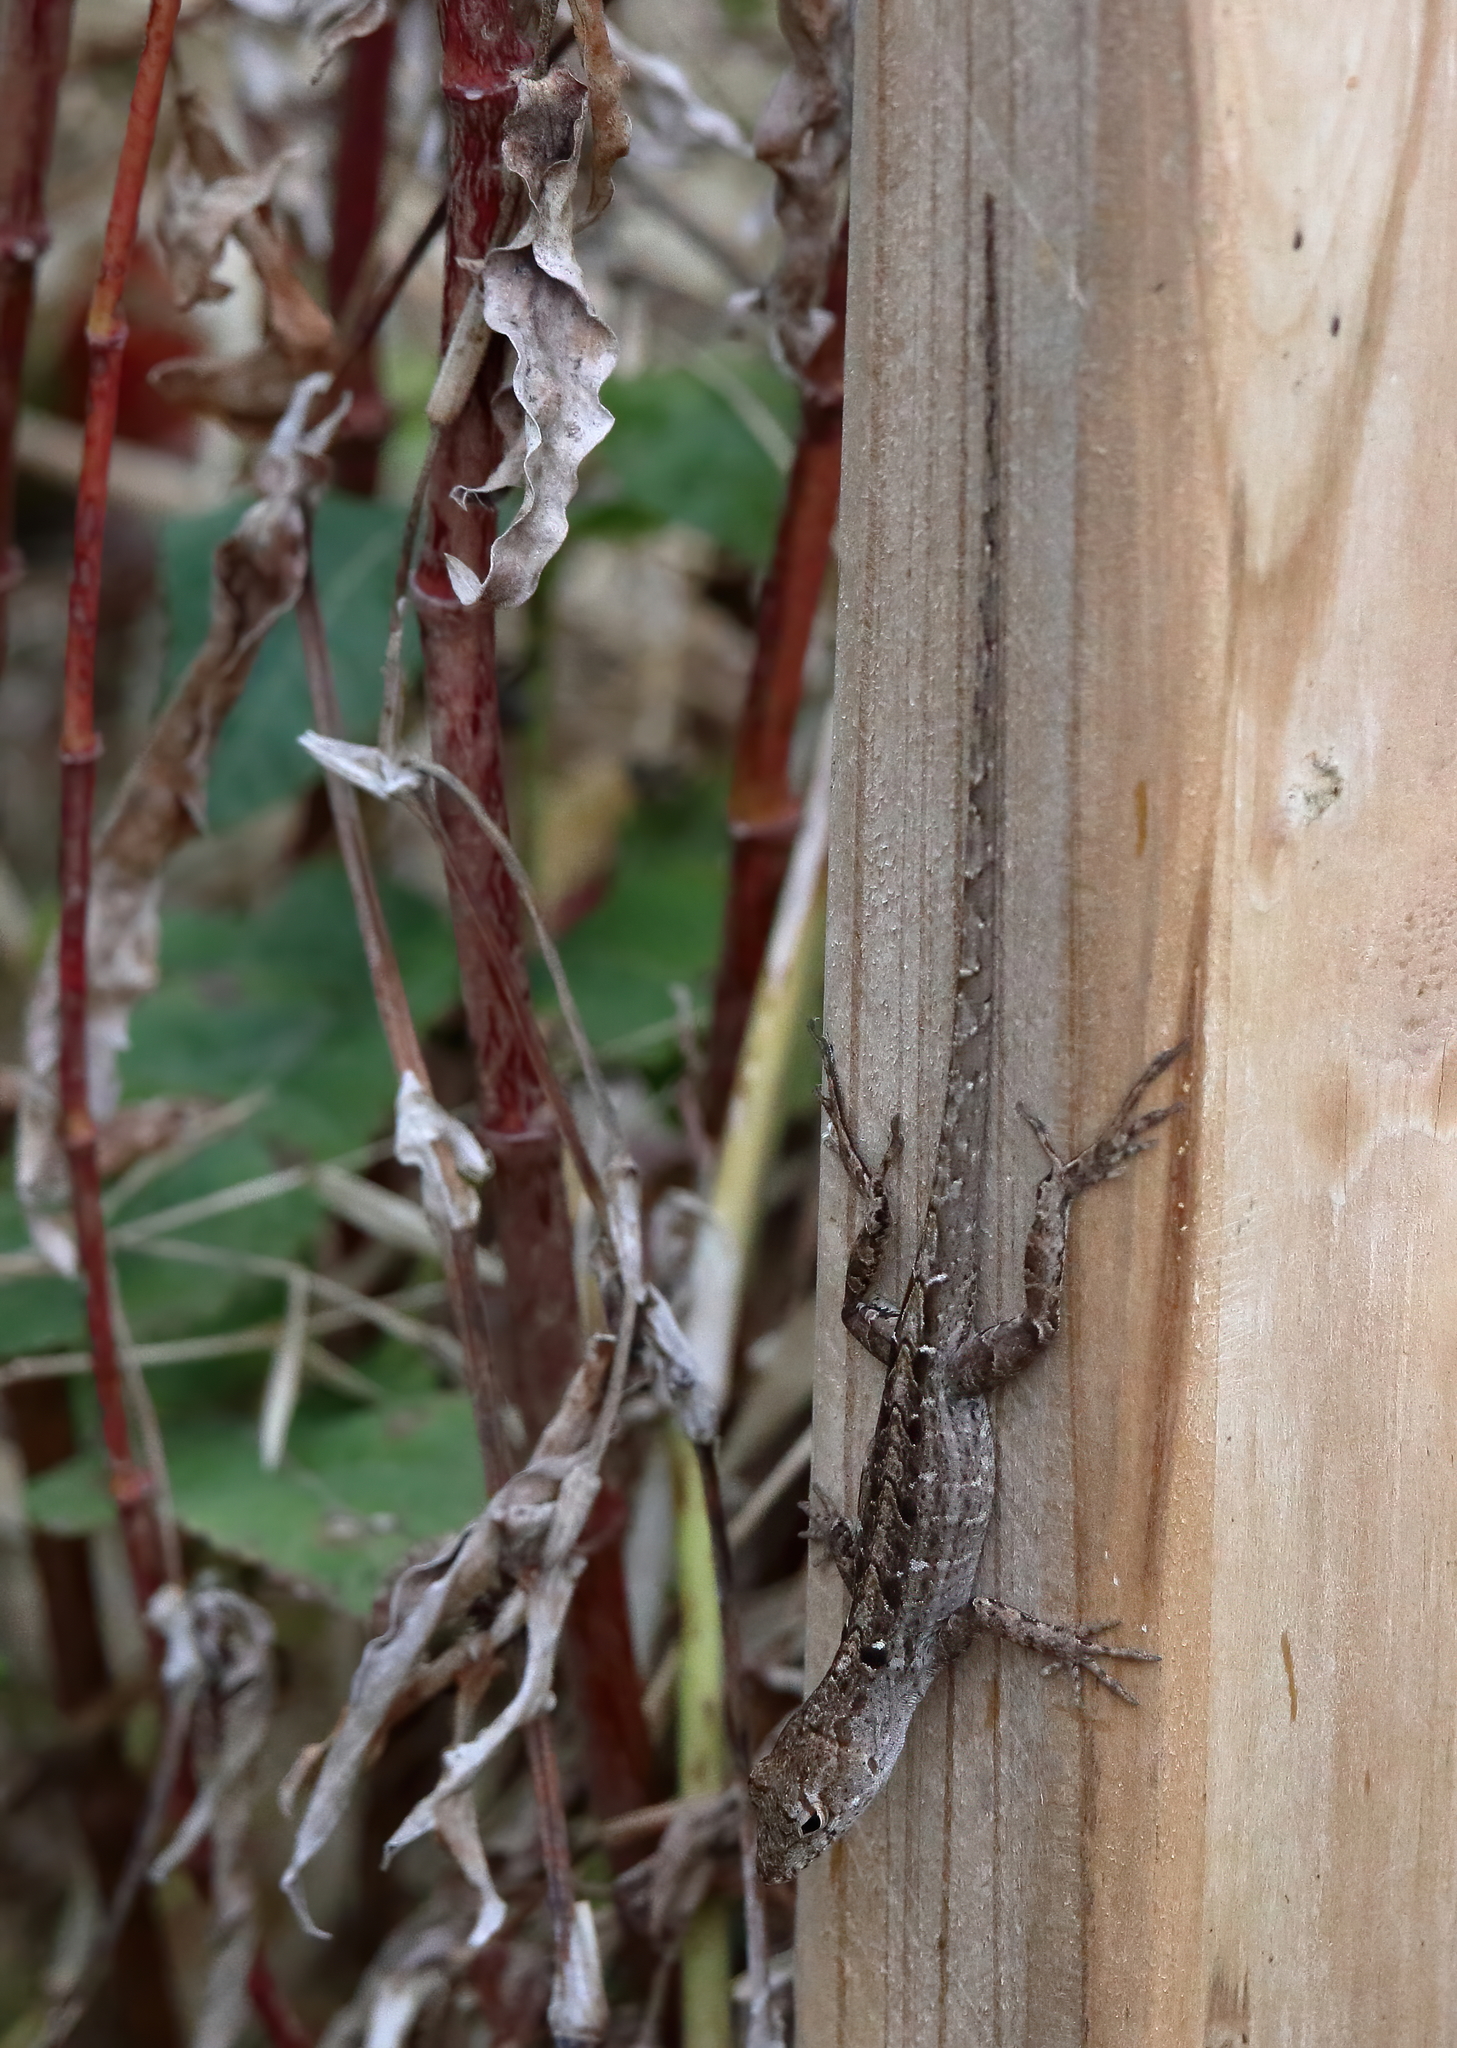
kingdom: Animalia
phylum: Chordata
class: Squamata
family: Dactyloidae
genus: Anolis
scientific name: Anolis sagrei
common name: Brown anole
